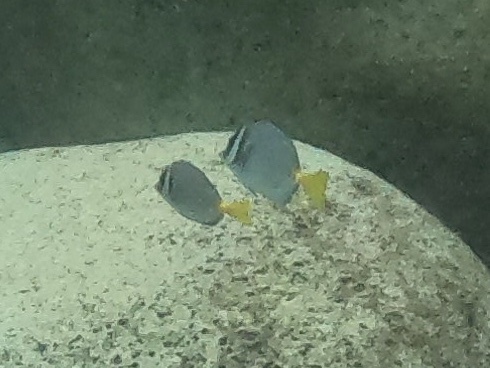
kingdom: Animalia
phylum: Chordata
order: Perciformes
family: Acanthuridae
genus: Prionurus
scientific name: Prionurus laticlavius
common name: Razor surgeonfish
